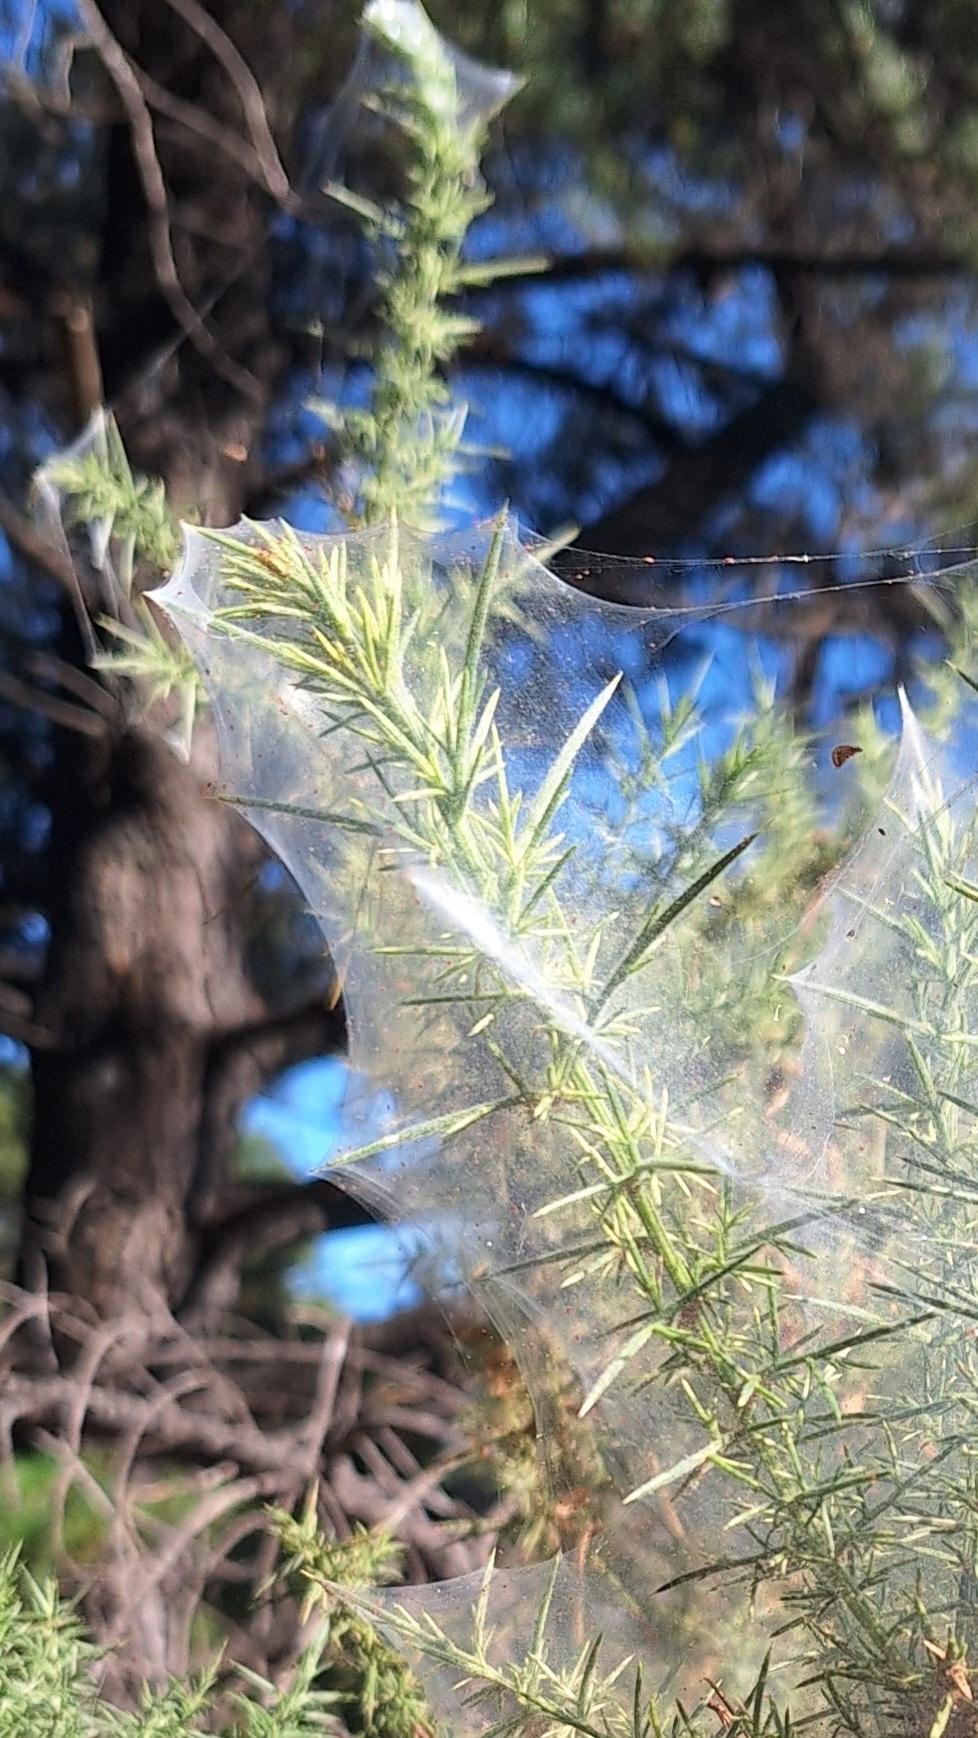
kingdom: Animalia
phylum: Arthropoda
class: Arachnida
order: Trombidiformes
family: Tetranychidae
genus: Tetranychus
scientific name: Tetranychus lintearius
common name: Gorse spider mite
